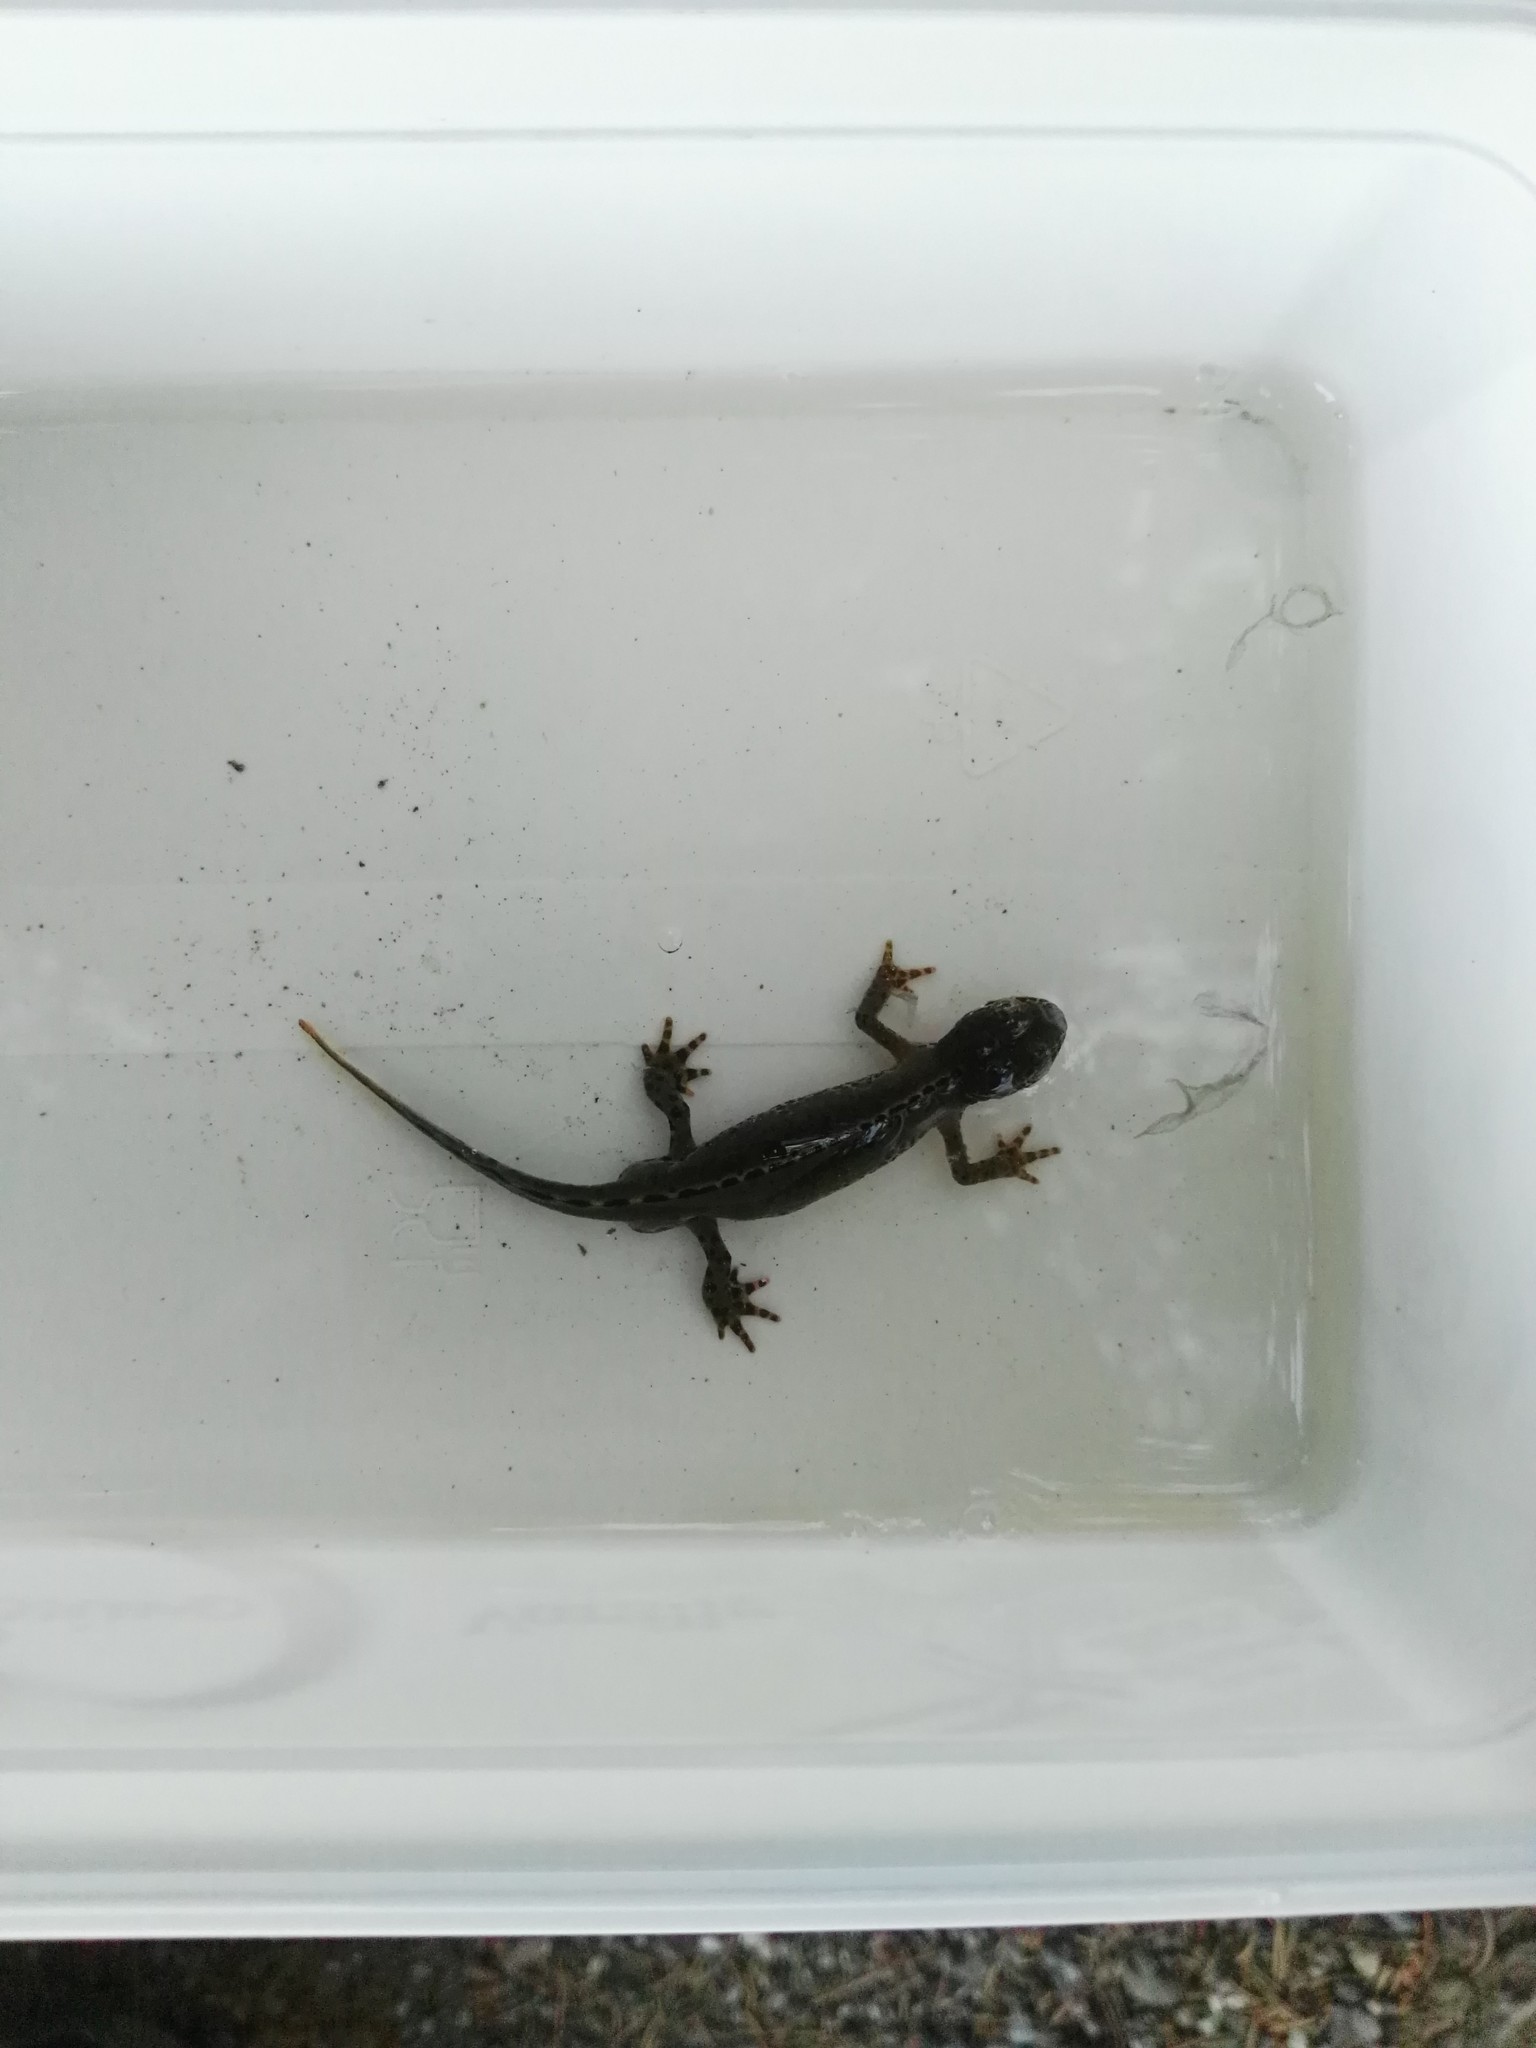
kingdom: Animalia
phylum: Chordata
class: Amphibia
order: Caudata
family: Salamandridae
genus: Ichthyosaura
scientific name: Ichthyosaura alpestris
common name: Alpine newt
